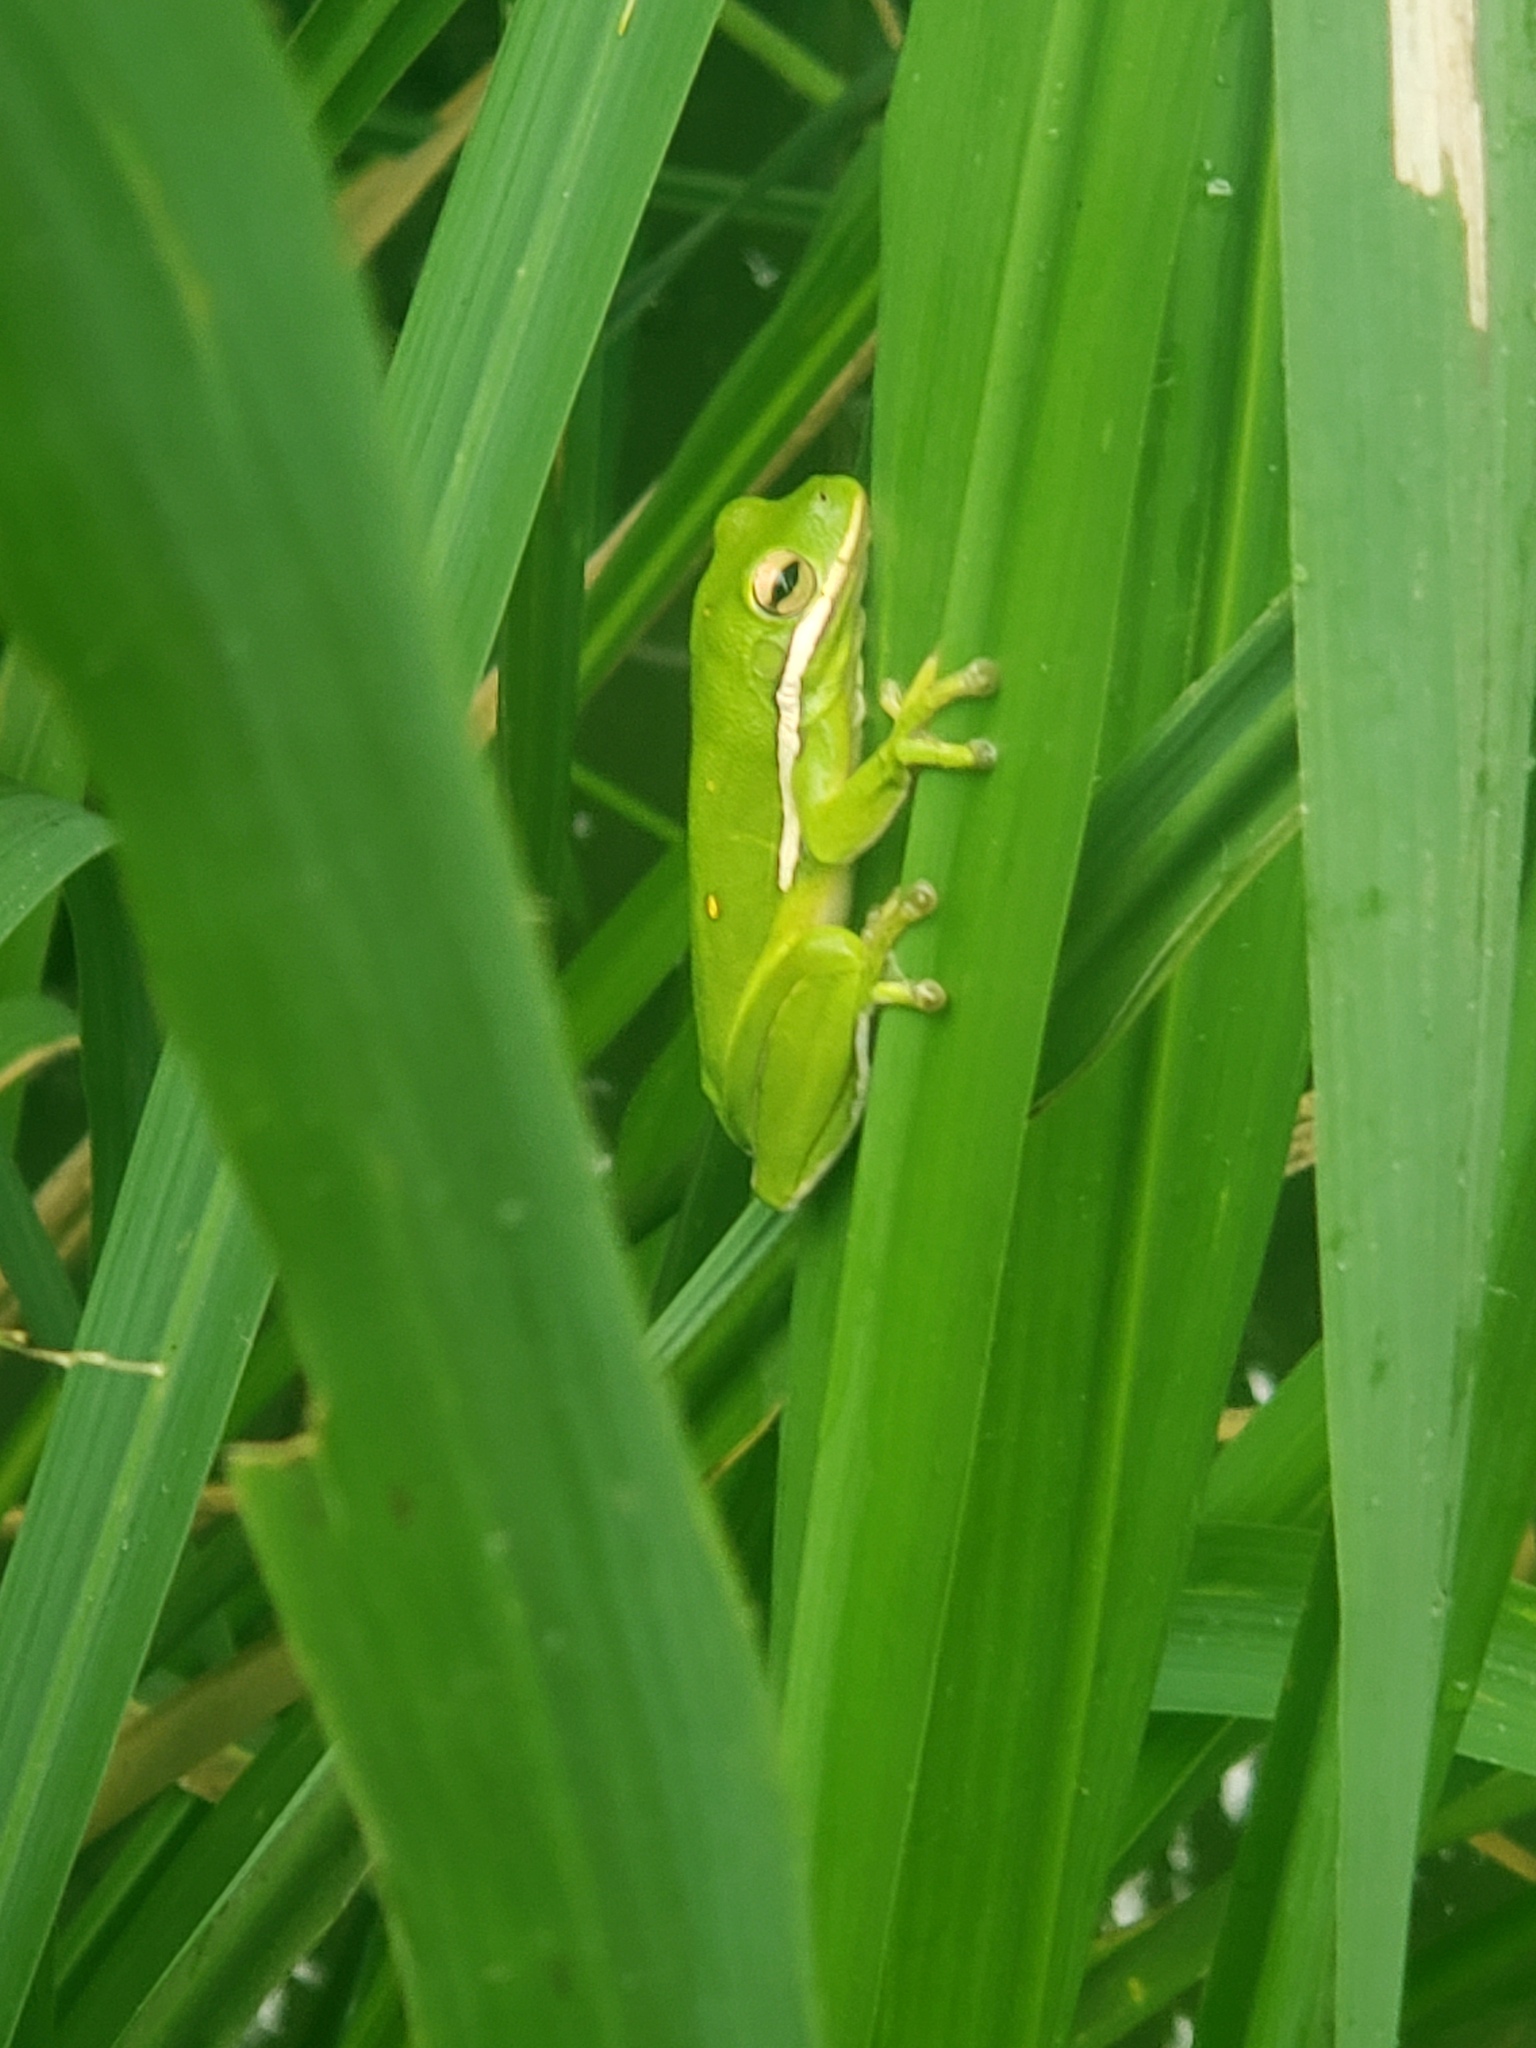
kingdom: Animalia
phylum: Chordata
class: Amphibia
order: Anura
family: Hylidae
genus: Dryophytes
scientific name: Dryophytes cinereus
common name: Green treefrog
